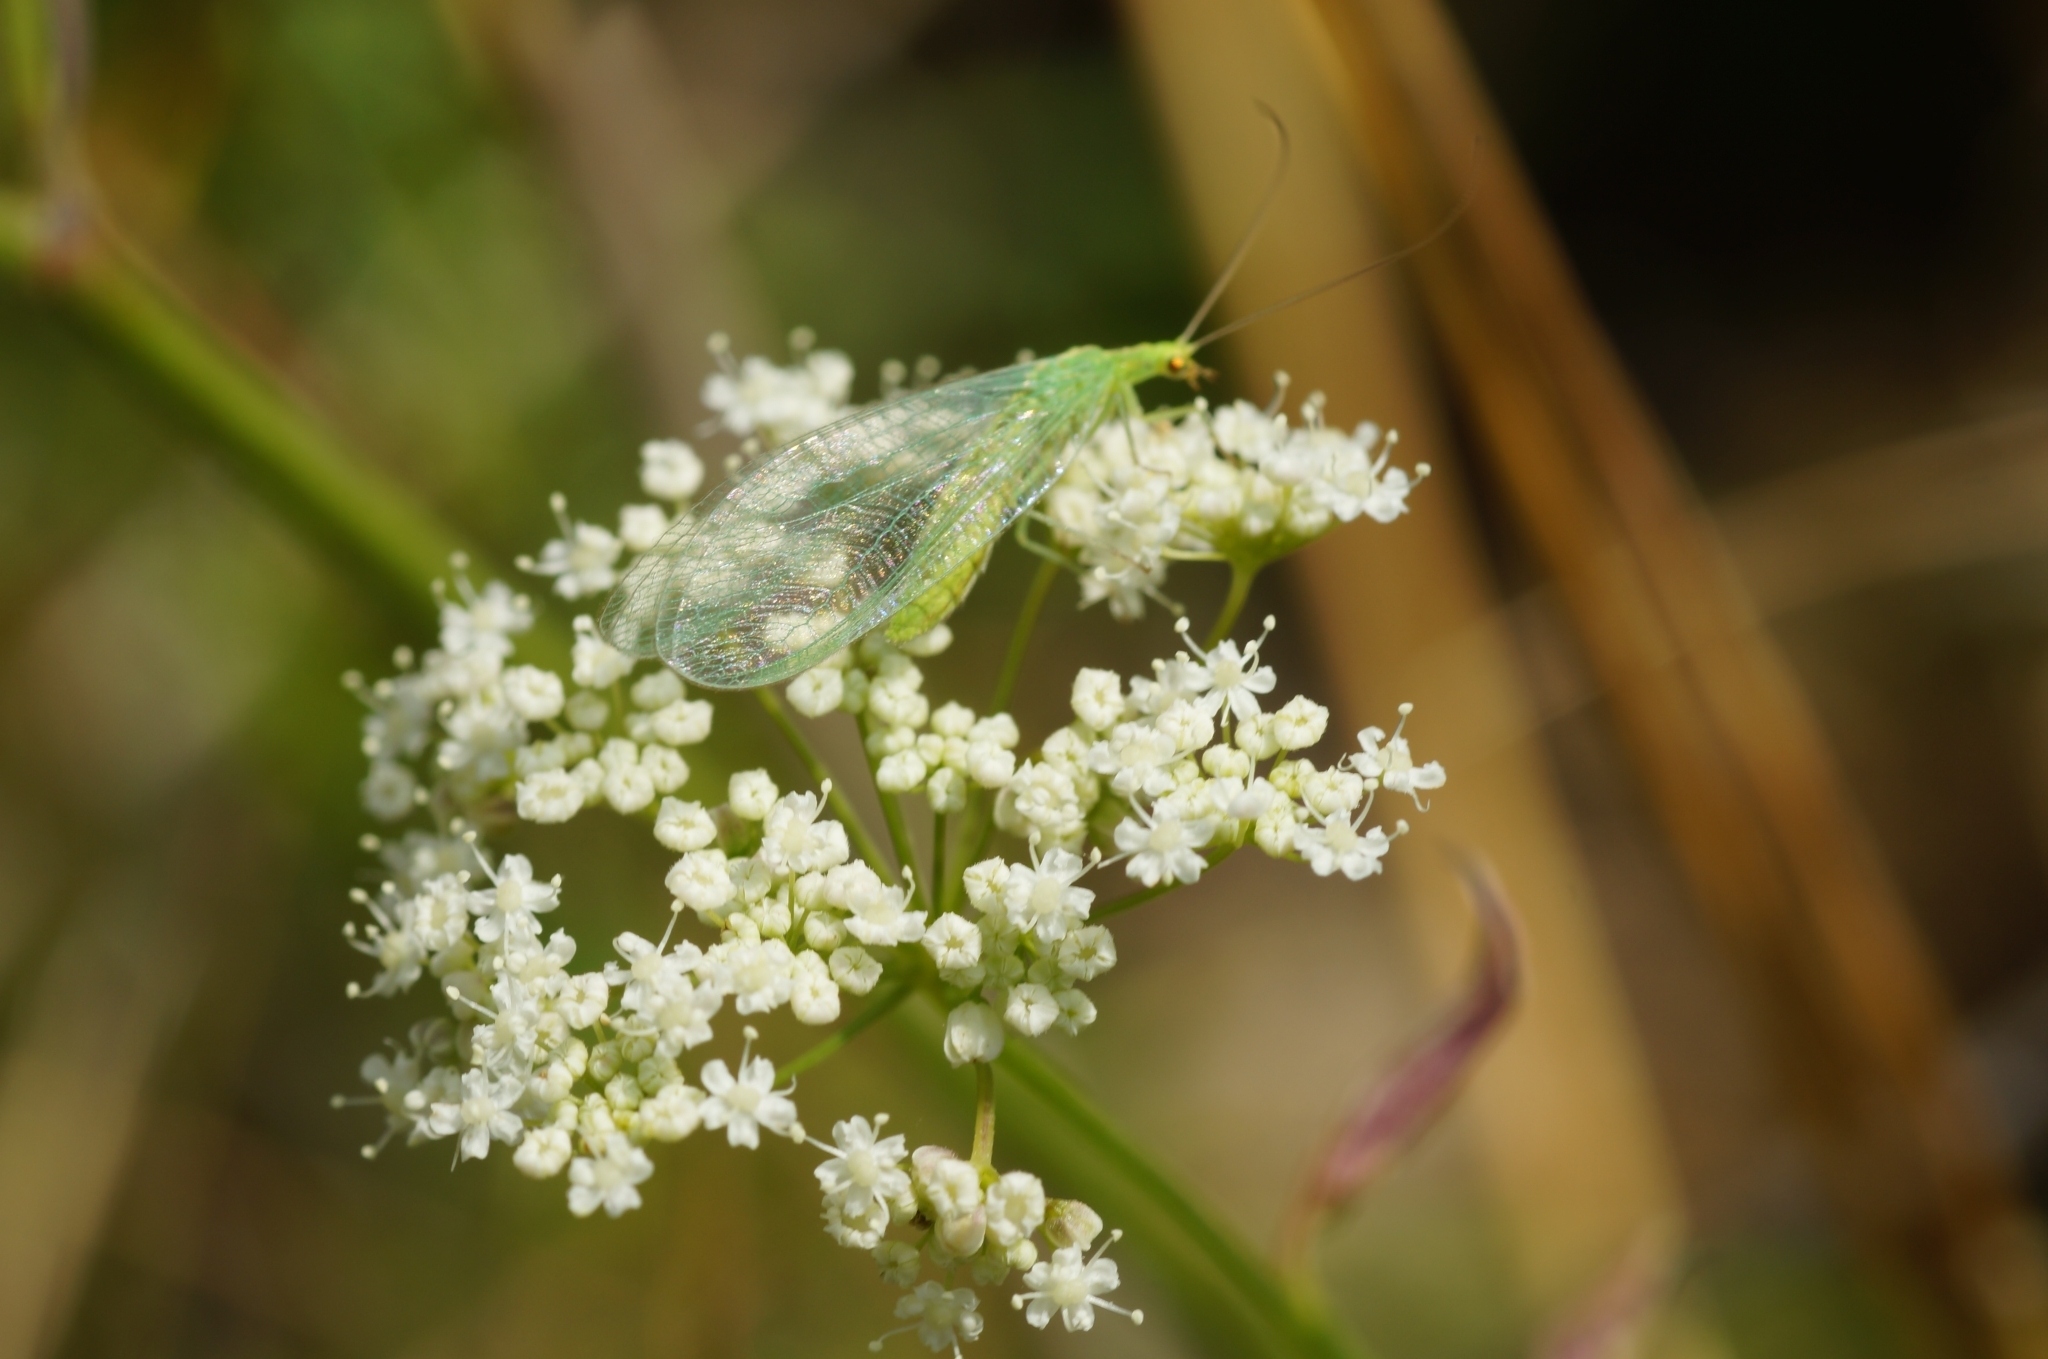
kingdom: Animalia
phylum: Arthropoda
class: Insecta
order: Neuroptera
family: Chrysopidae
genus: Chrysoperla
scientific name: Chrysoperla
